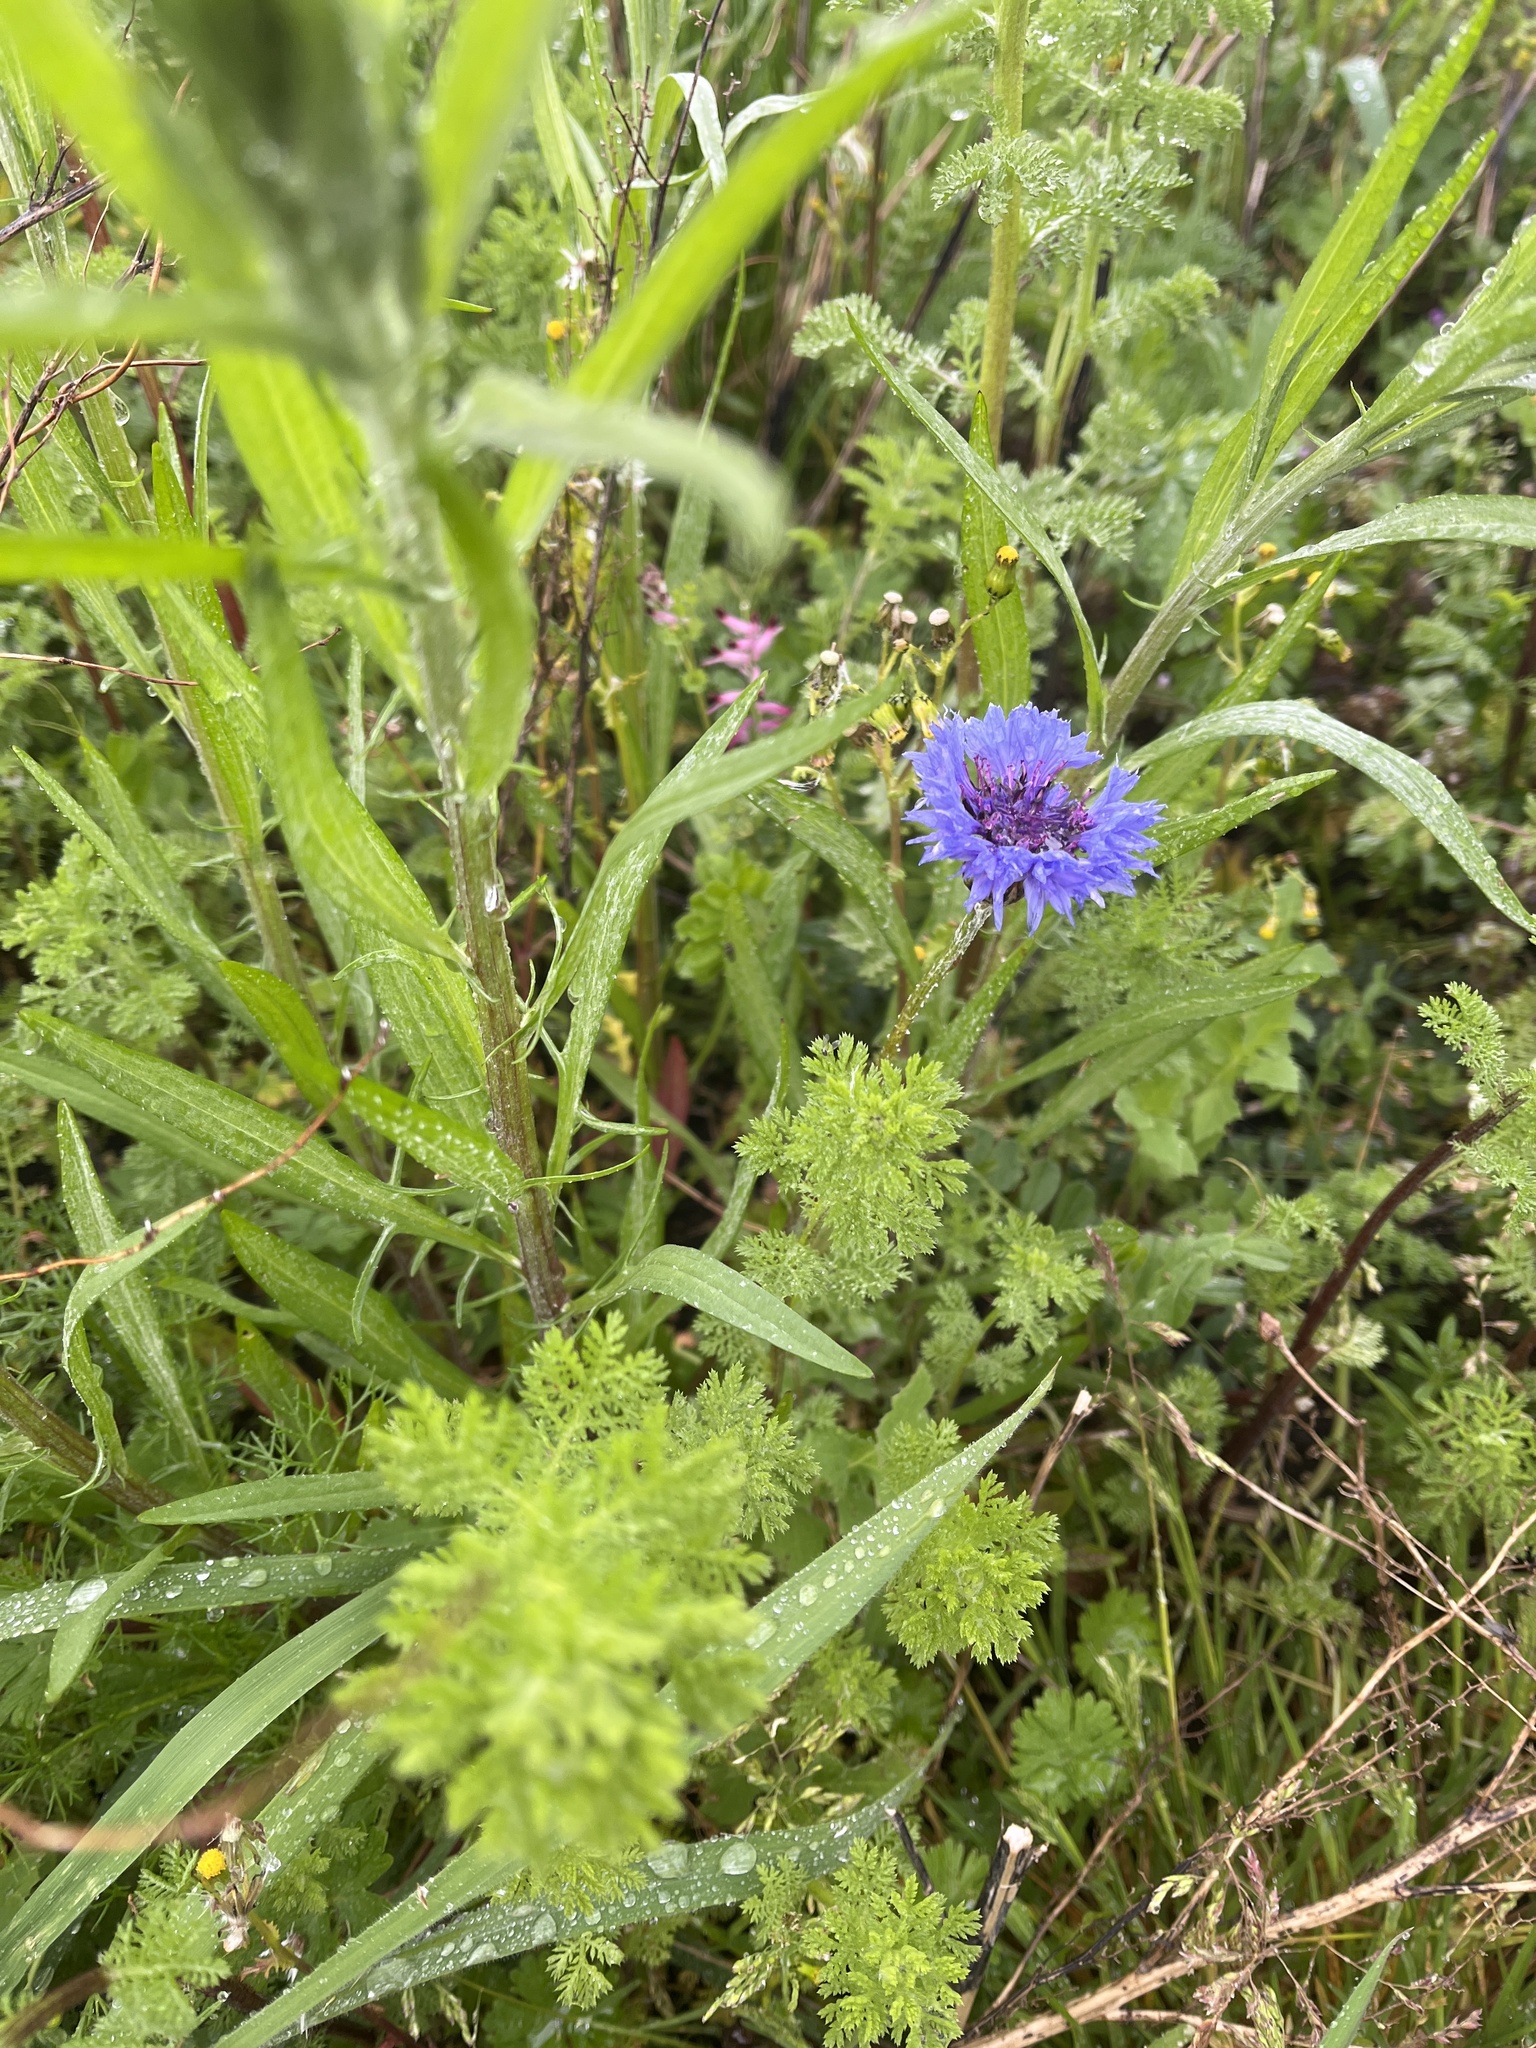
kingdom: Plantae
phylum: Tracheophyta
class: Magnoliopsida
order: Asterales
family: Asteraceae
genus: Centaurea
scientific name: Centaurea cyanus
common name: Cornflower
